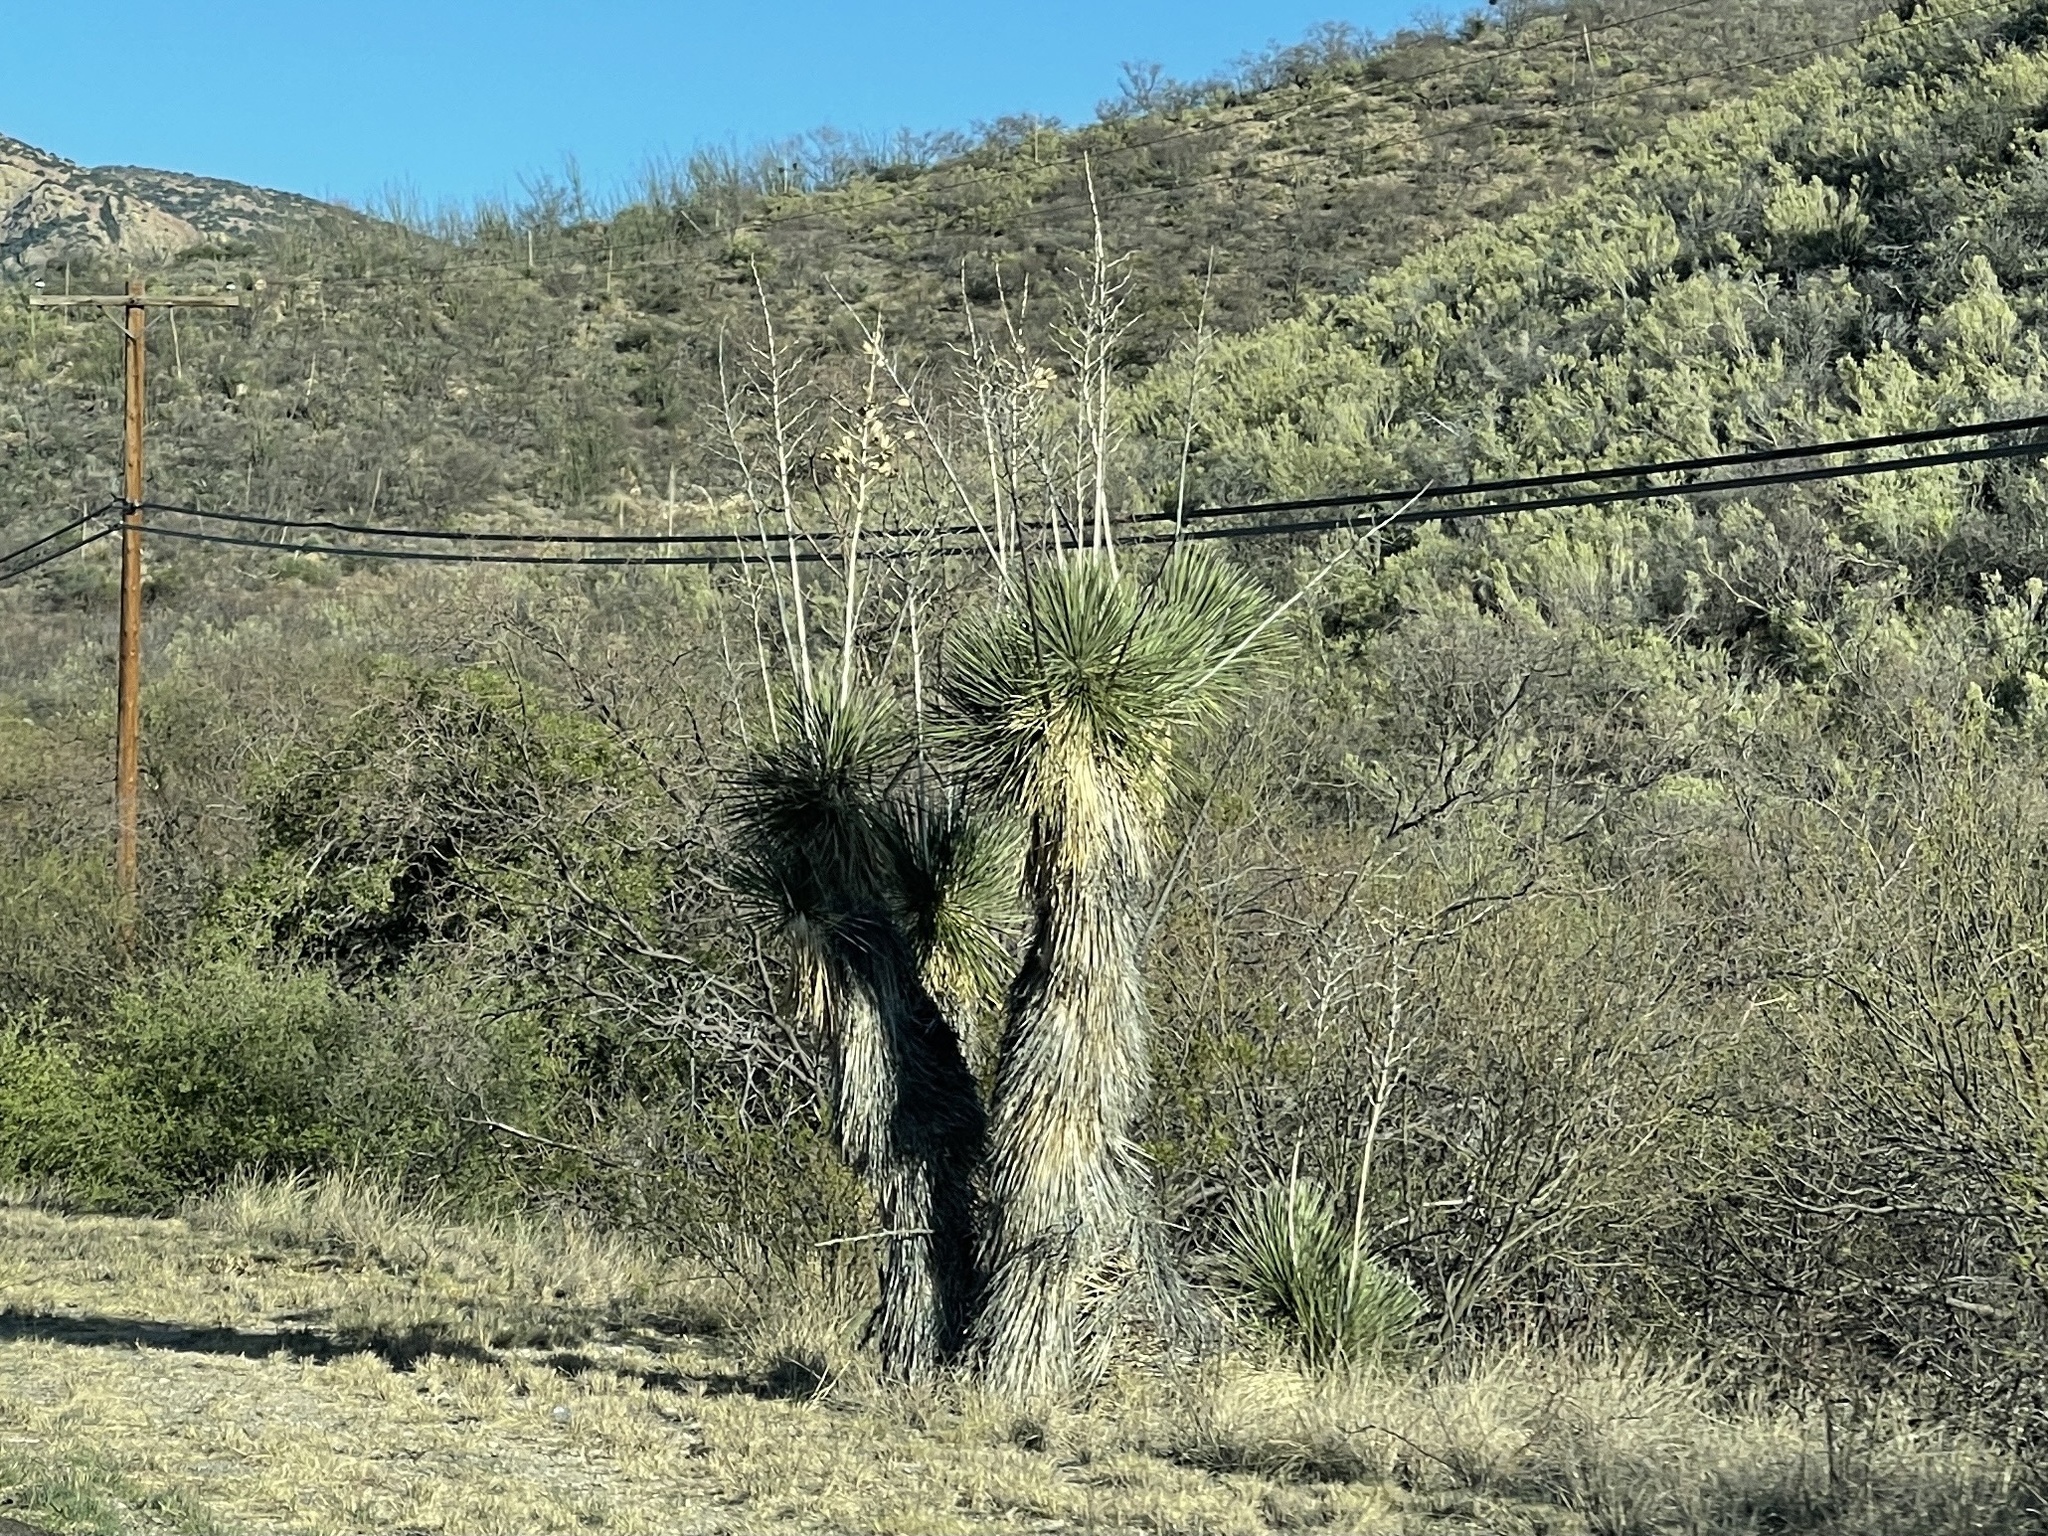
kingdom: Plantae
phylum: Tracheophyta
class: Liliopsida
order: Asparagales
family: Asparagaceae
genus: Yucca
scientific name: Yucca elata
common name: Palmella
